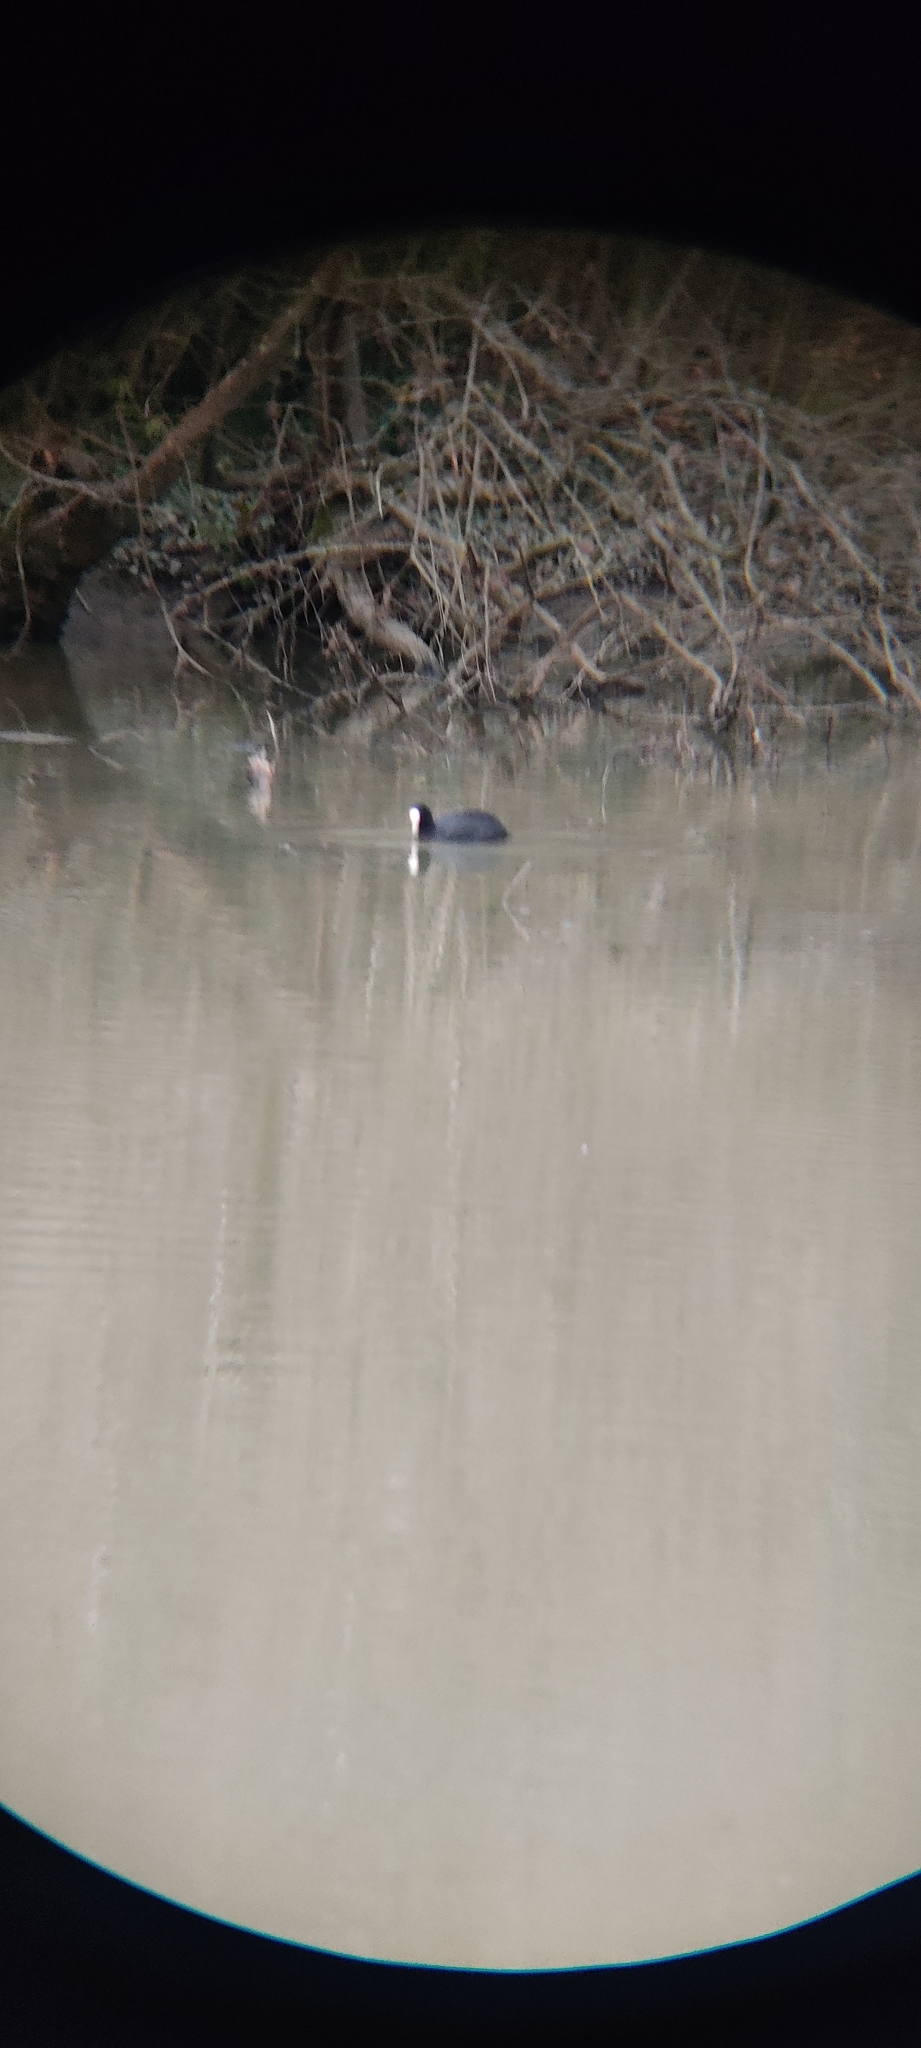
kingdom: Animalia
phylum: Chordata
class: Aves
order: Gruiformes
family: Rallidae
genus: Fulica
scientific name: Fulica atra
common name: Eurasian coot
